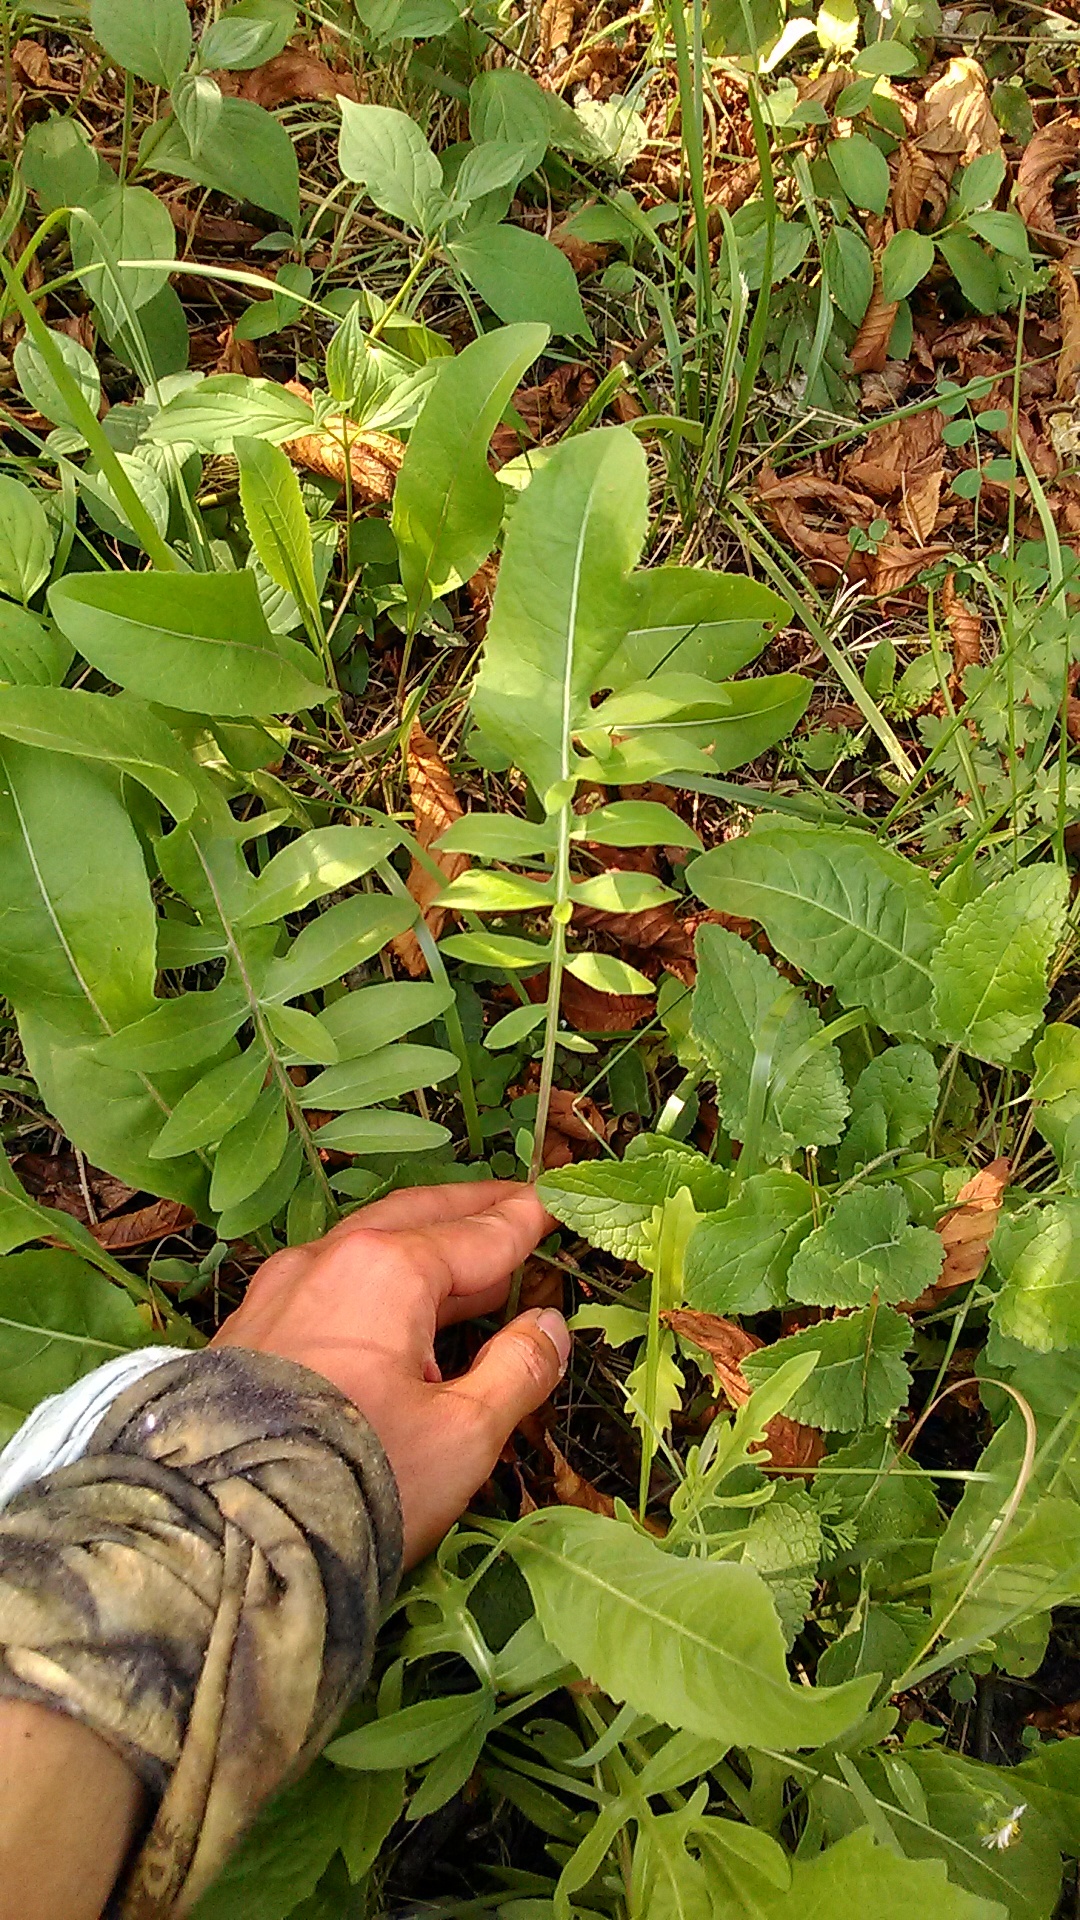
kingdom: Plantae
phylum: Tracheophyta
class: Magnoliopsida
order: Asterales
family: Asteraceae
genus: Centaurea
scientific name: Centaurea scabiosa
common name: Greater knapweed
